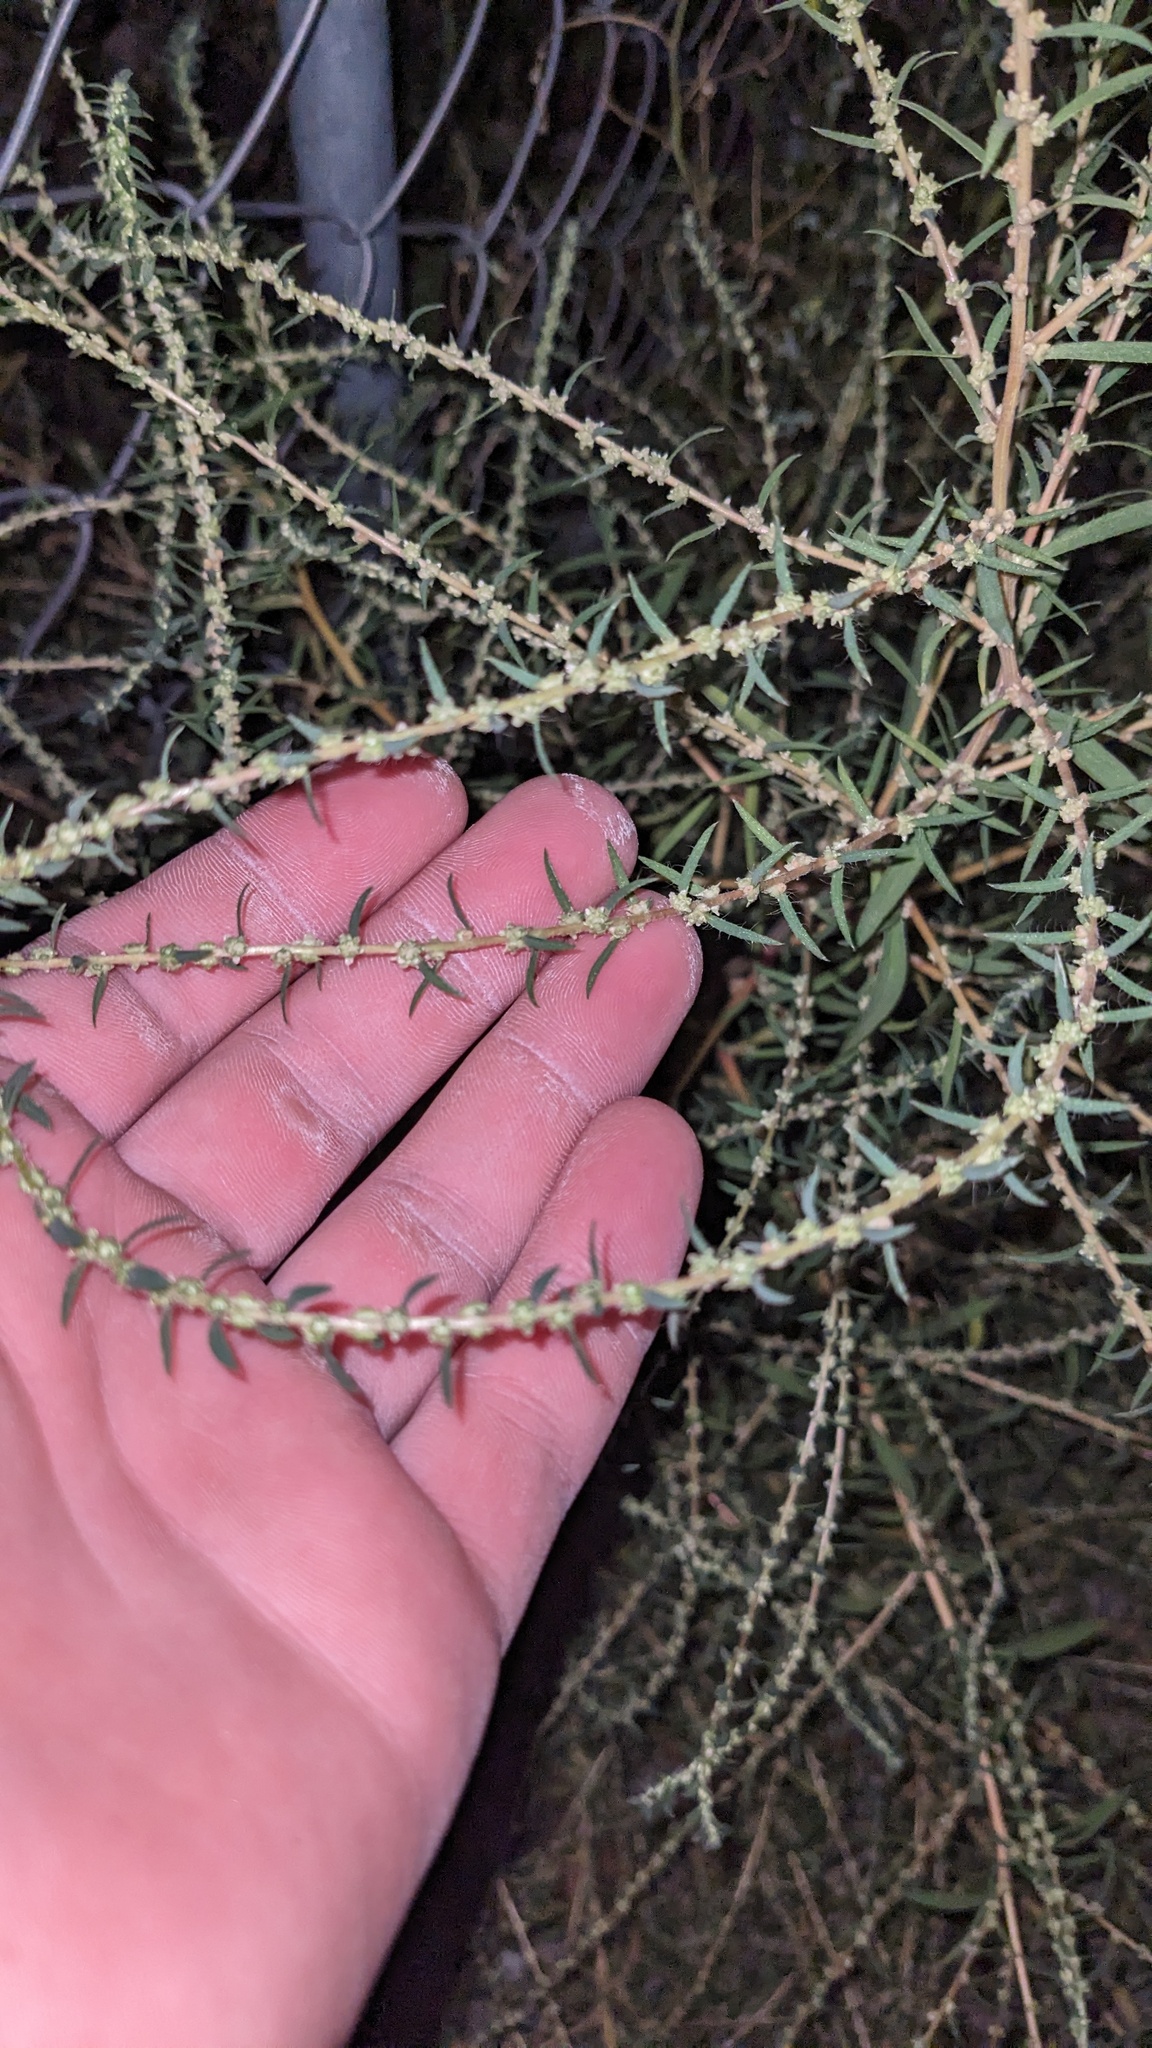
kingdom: Plantae
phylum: Tracheophyta
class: Magnoliopsida
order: Caryophyllales
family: Amaranthaceae
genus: Bassia
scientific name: Bassia scoparia
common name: Belvedere
